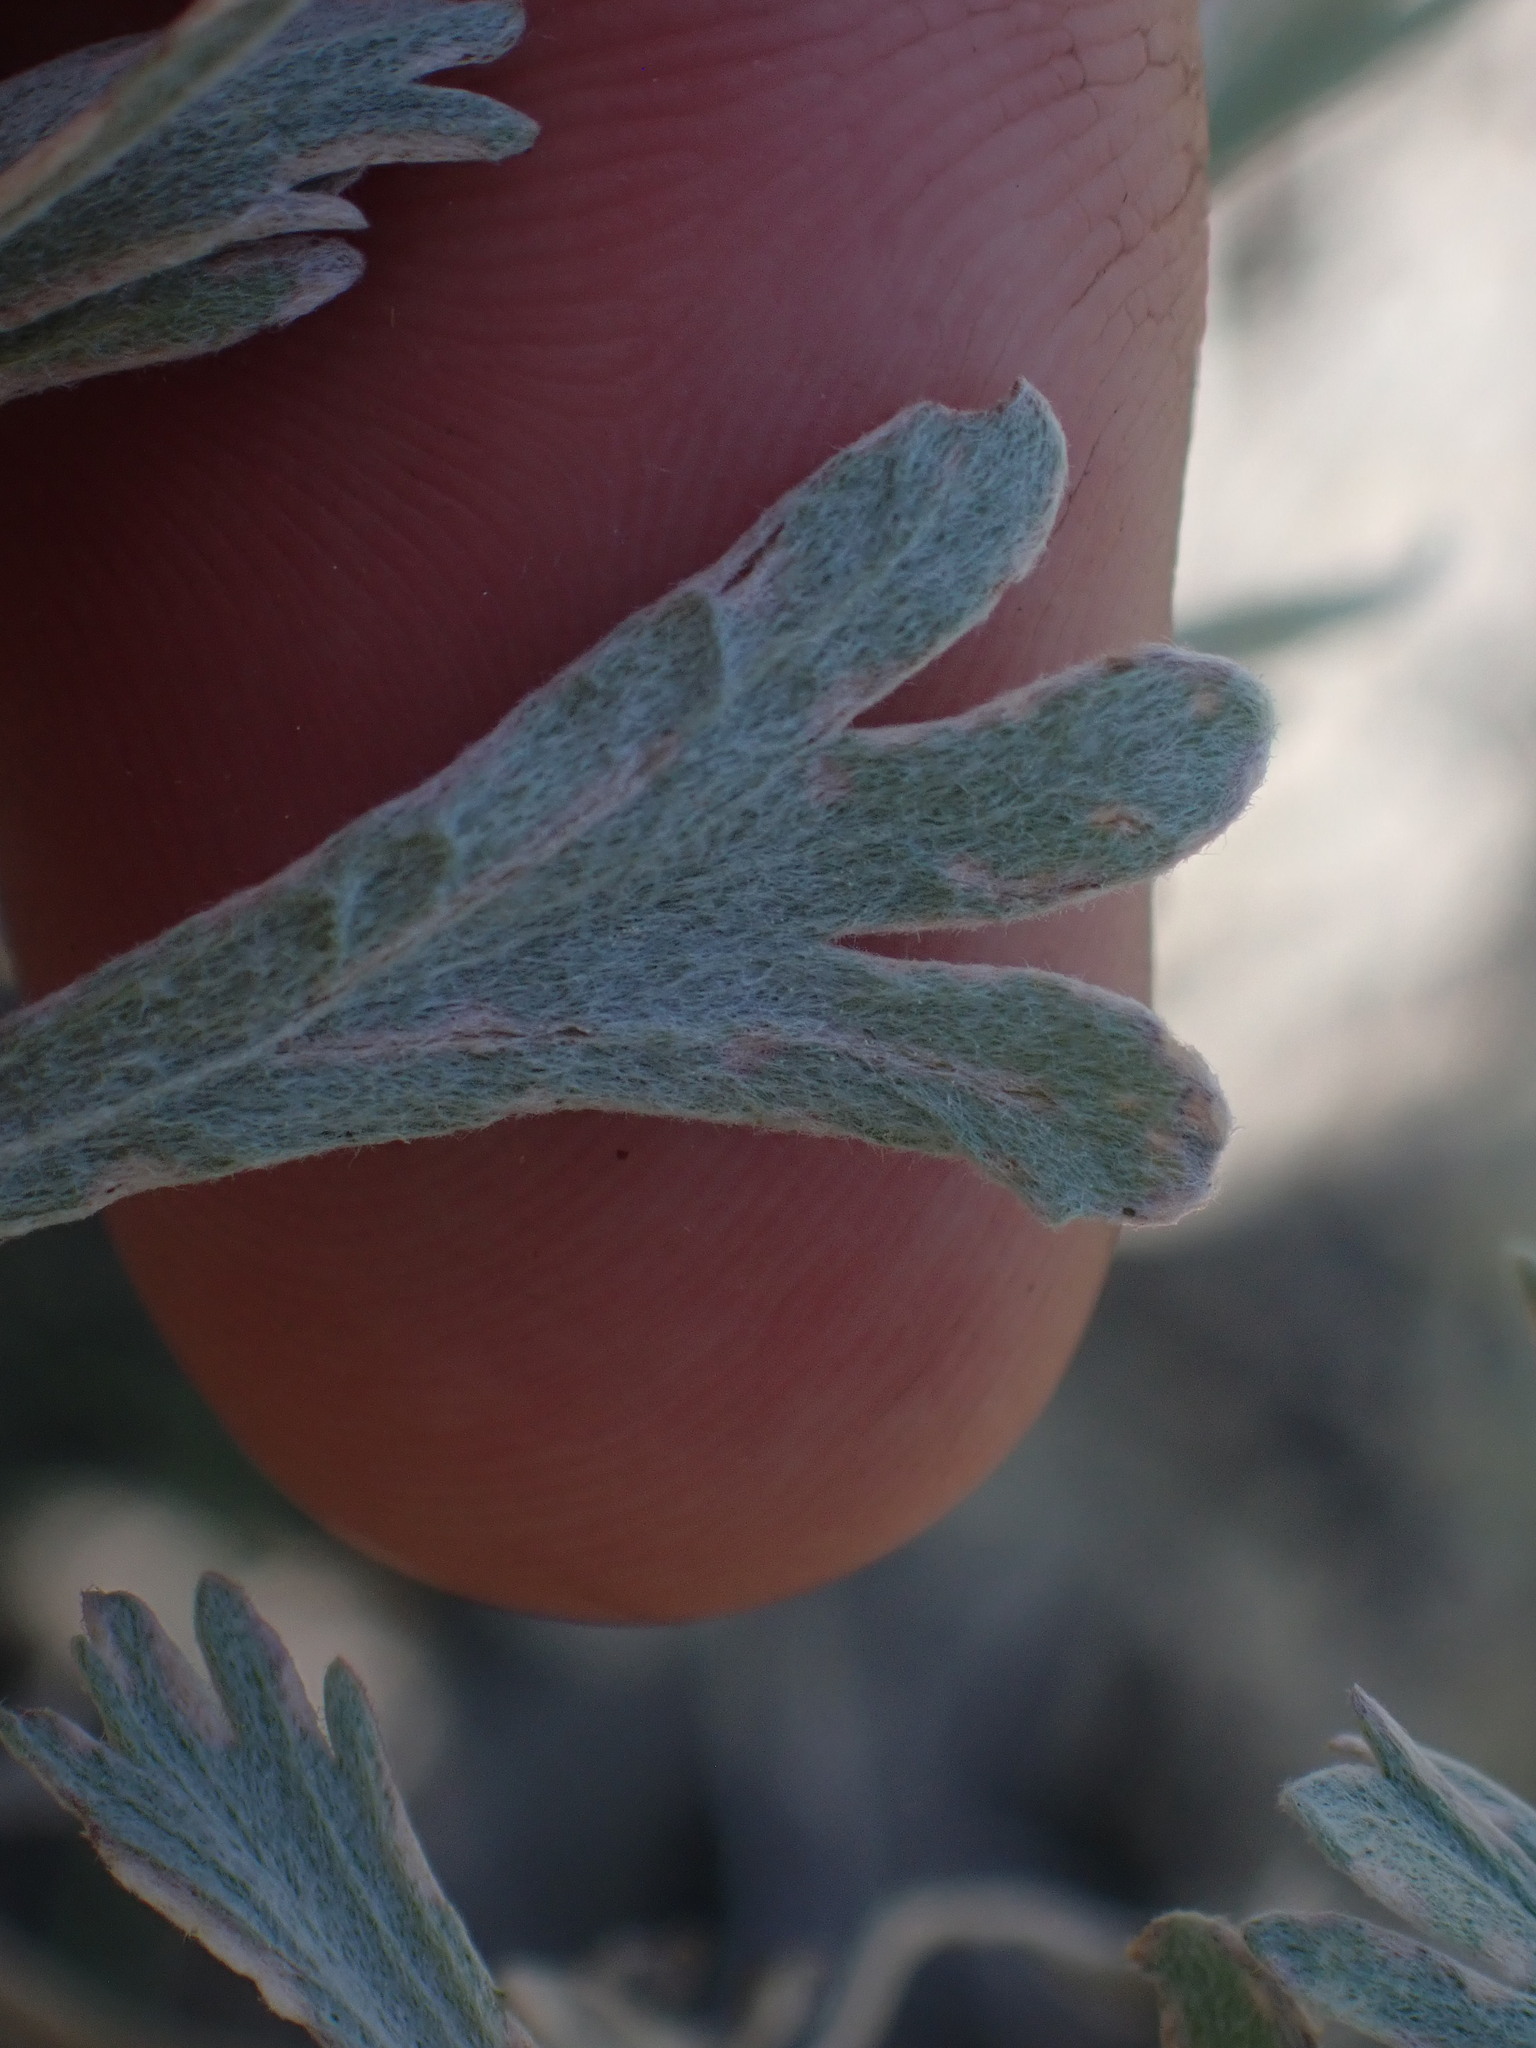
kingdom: Plantae
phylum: Tracheophyta
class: Magnoliopsida
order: Asterales
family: Asteraceae
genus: Artemisia
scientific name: Artemisia tridentata
